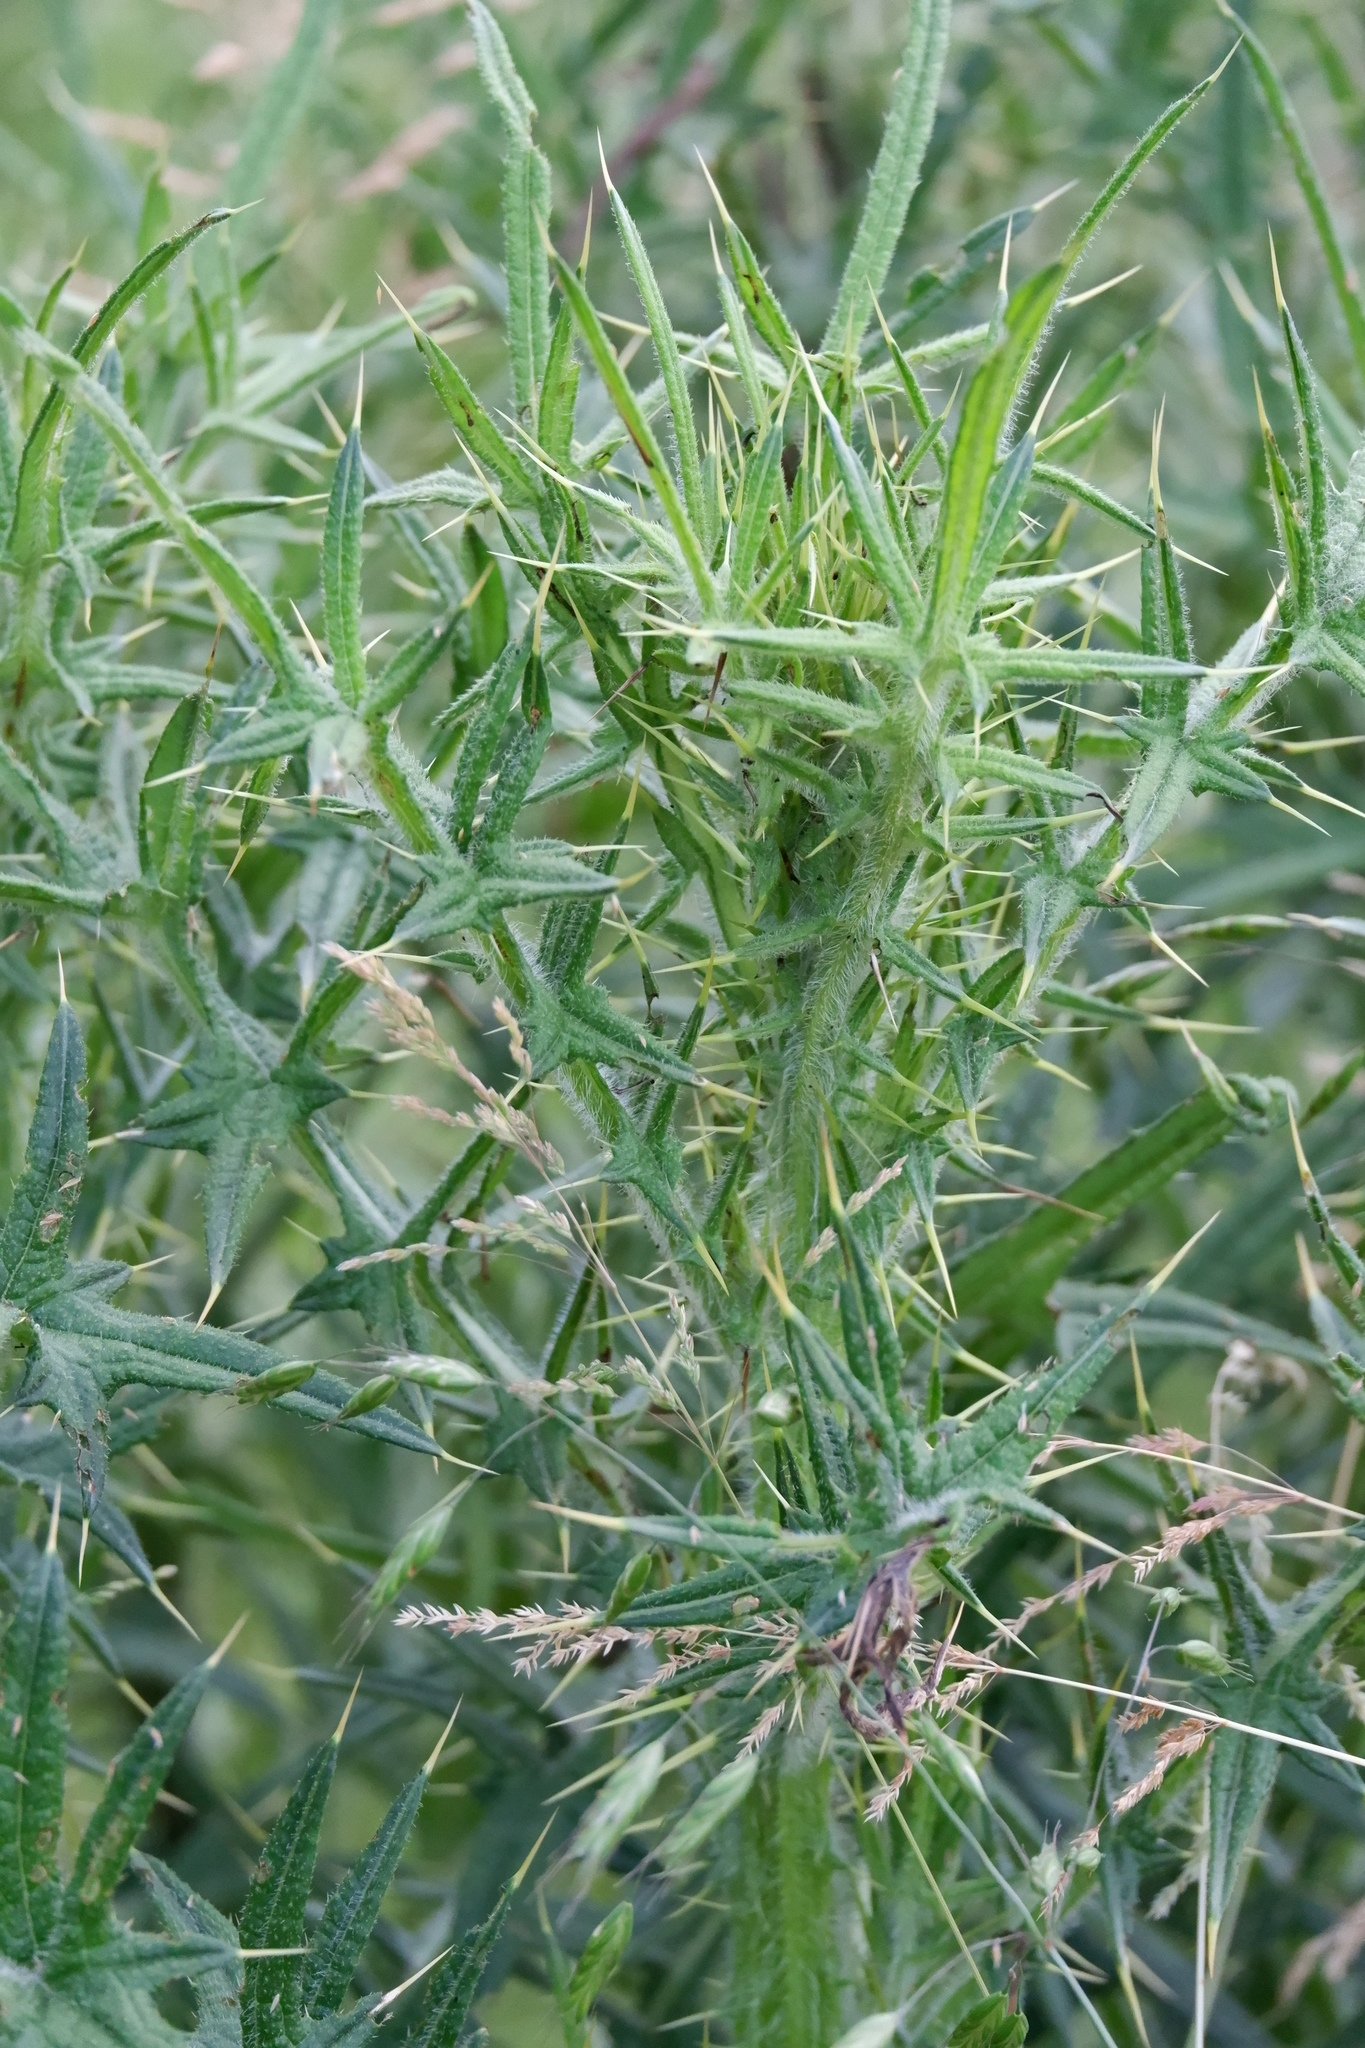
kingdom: Plantae
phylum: Tracheophyta
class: Magnoliopsida
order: Asterales
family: Asteraceae
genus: Cirsium
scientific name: Cirsium vulgare
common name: Bull thistle
